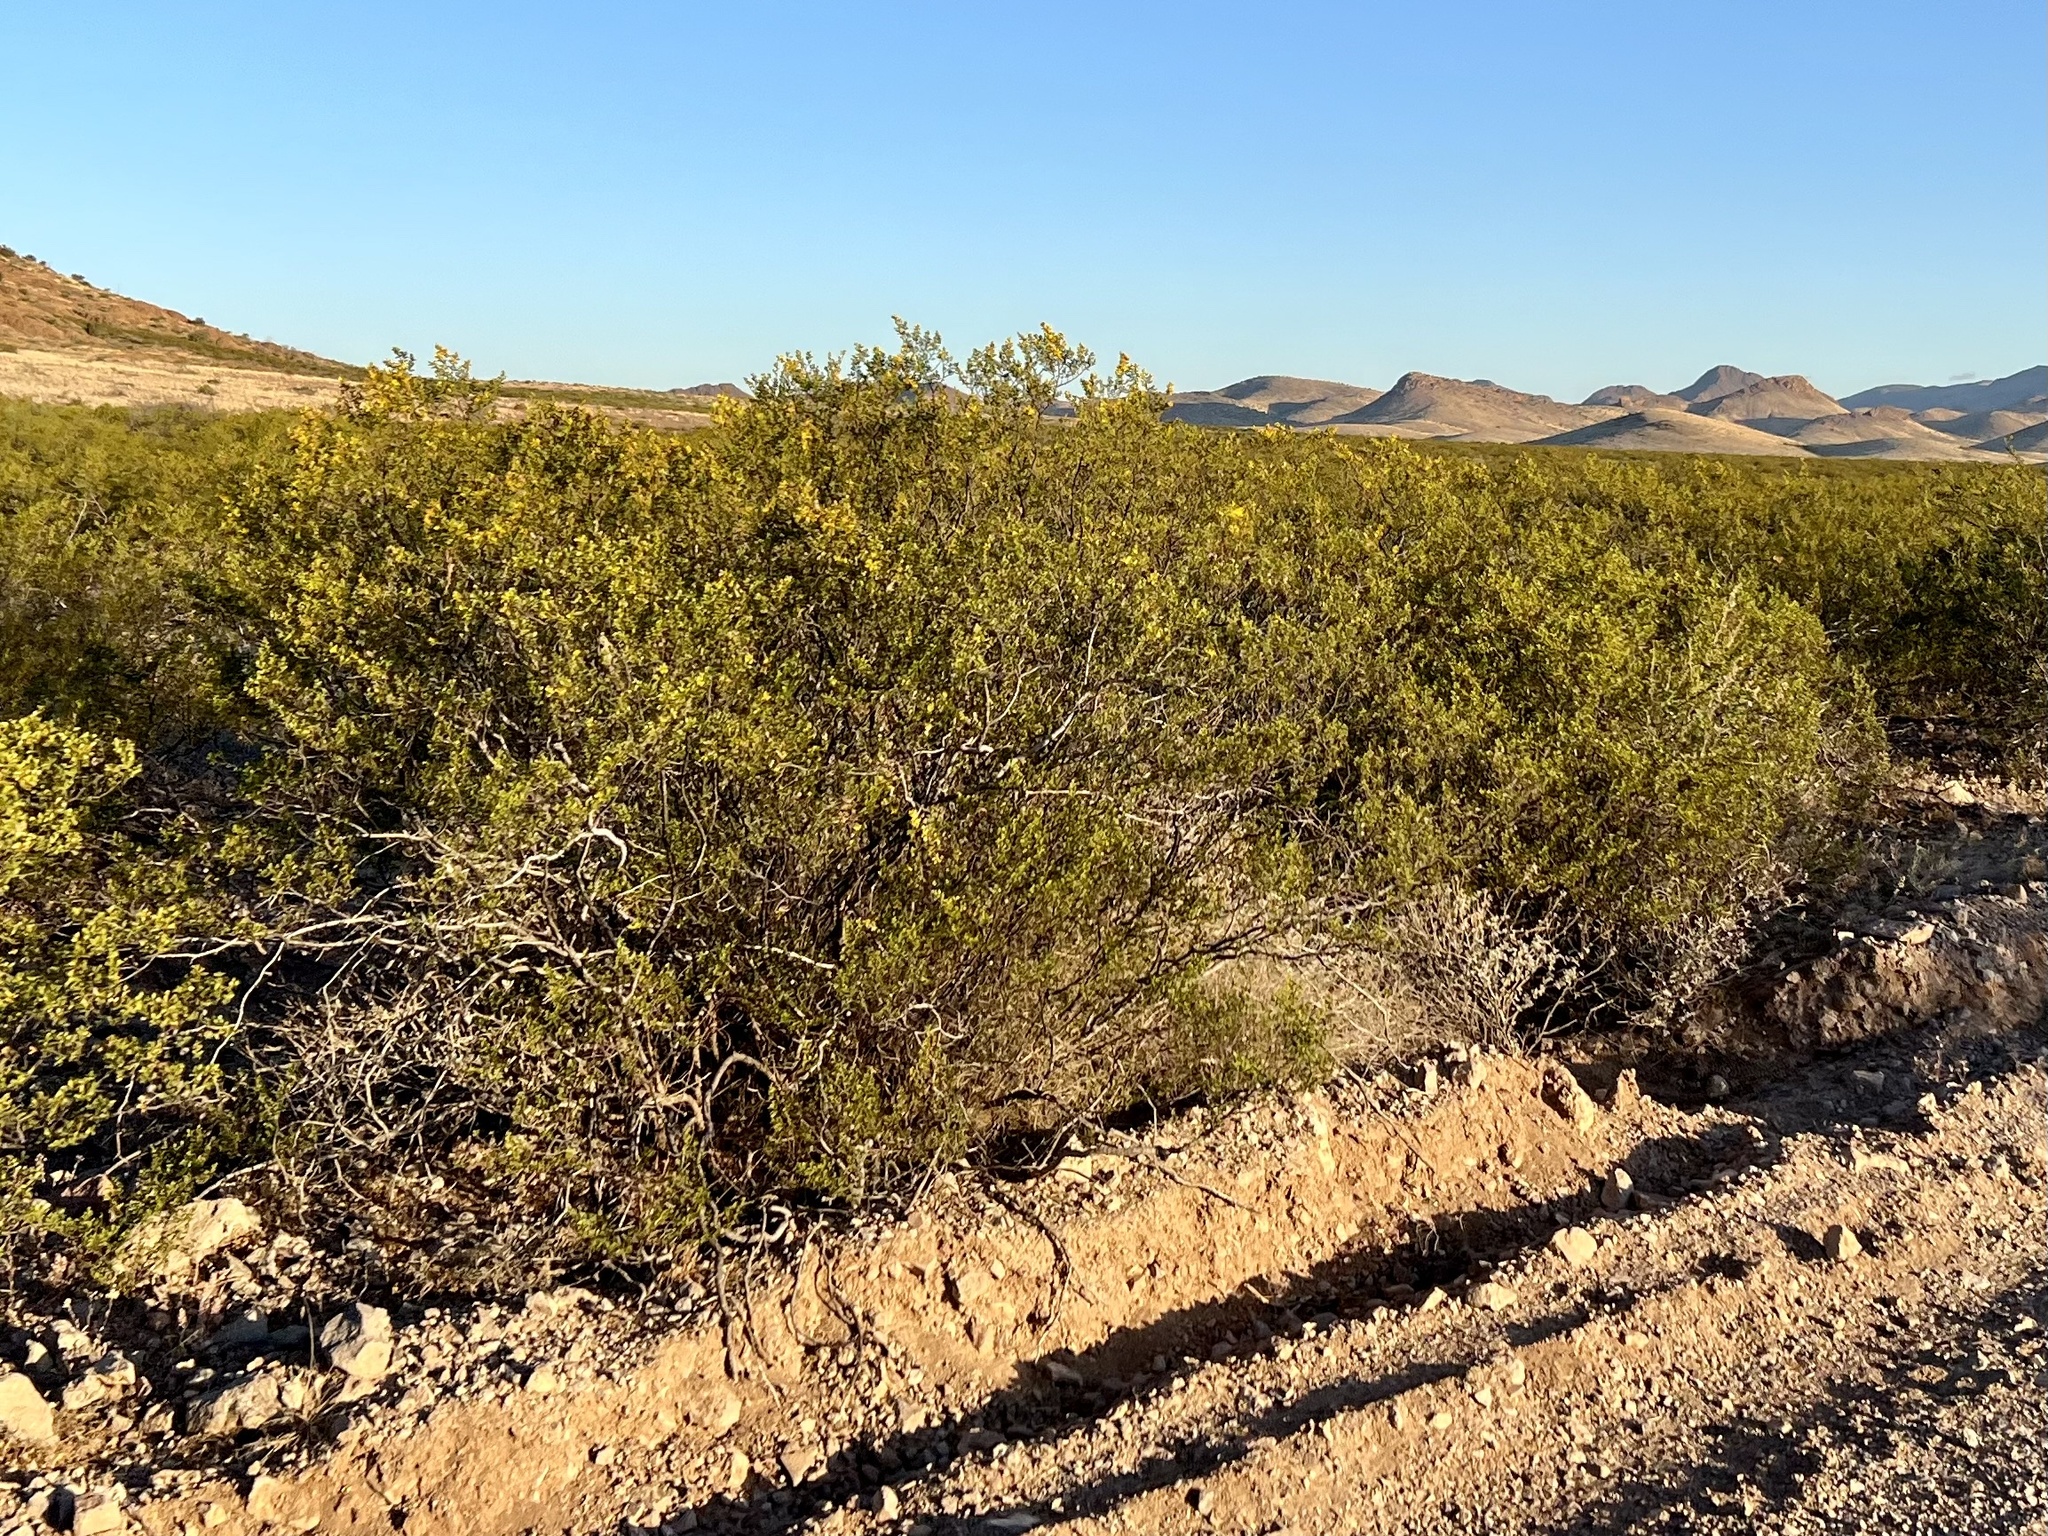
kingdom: Plantae
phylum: Tracheophyta
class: Magnoliopsida
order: Zygophyllales
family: Zygophyllaceae
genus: Larrea
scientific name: Larrea tridentata
